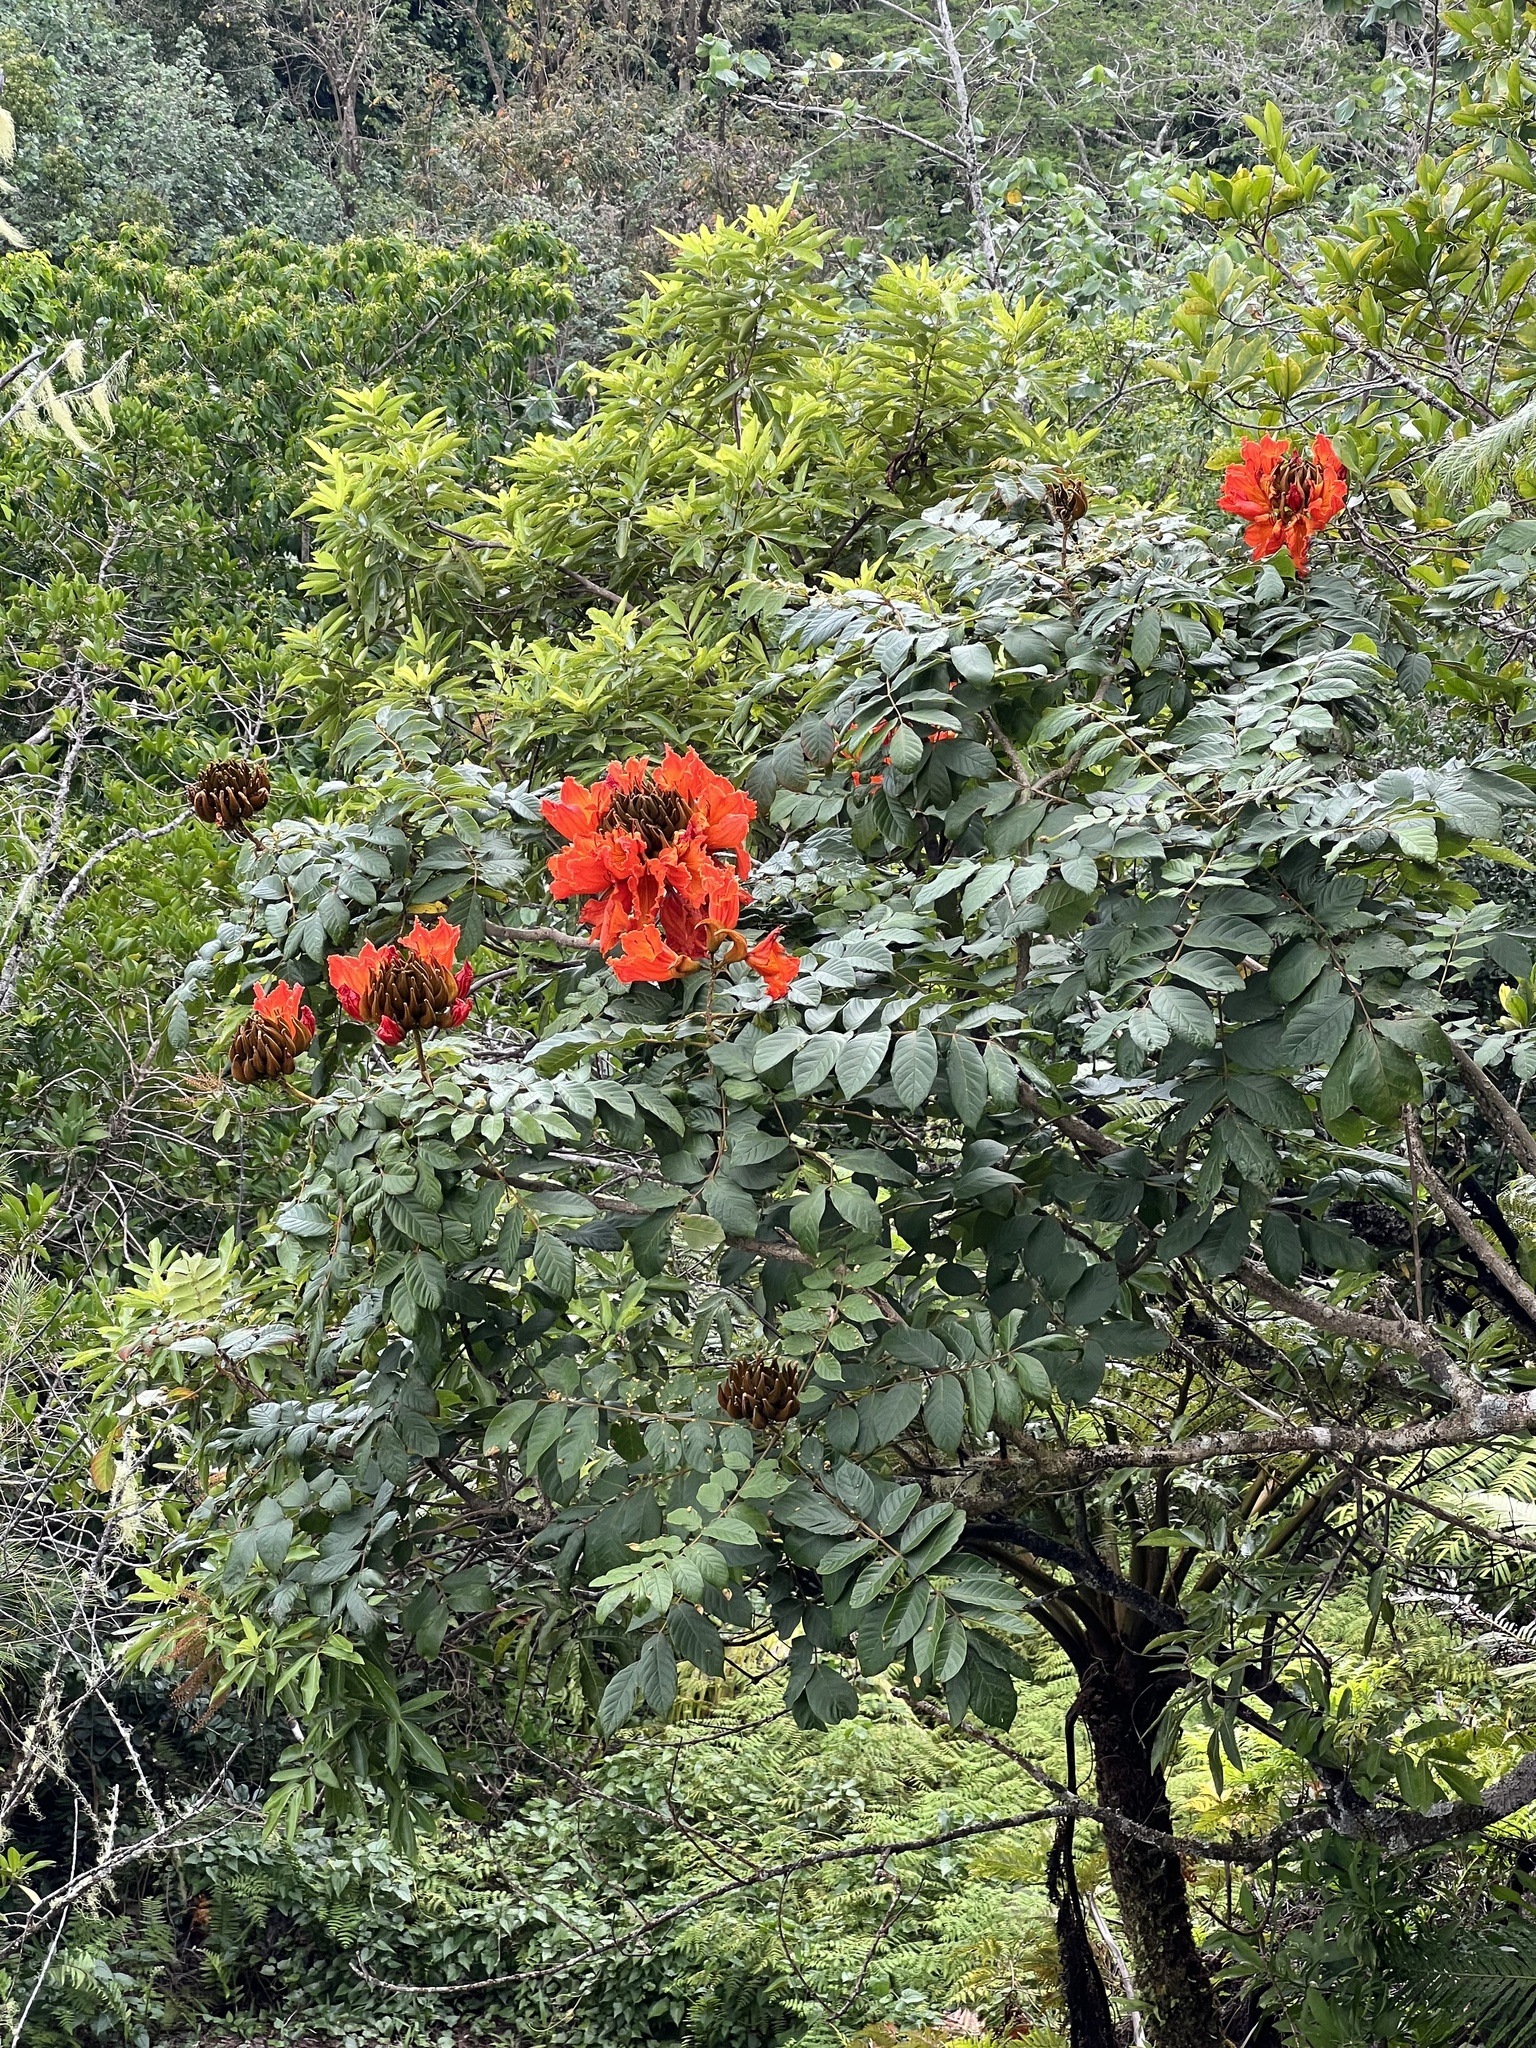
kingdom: Plantae
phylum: Tracheophyta
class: Magnoliopsida
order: Lamiales
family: Bignoniaceae
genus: Spathodea
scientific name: Spathodea campanulata
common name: African tuliptree
